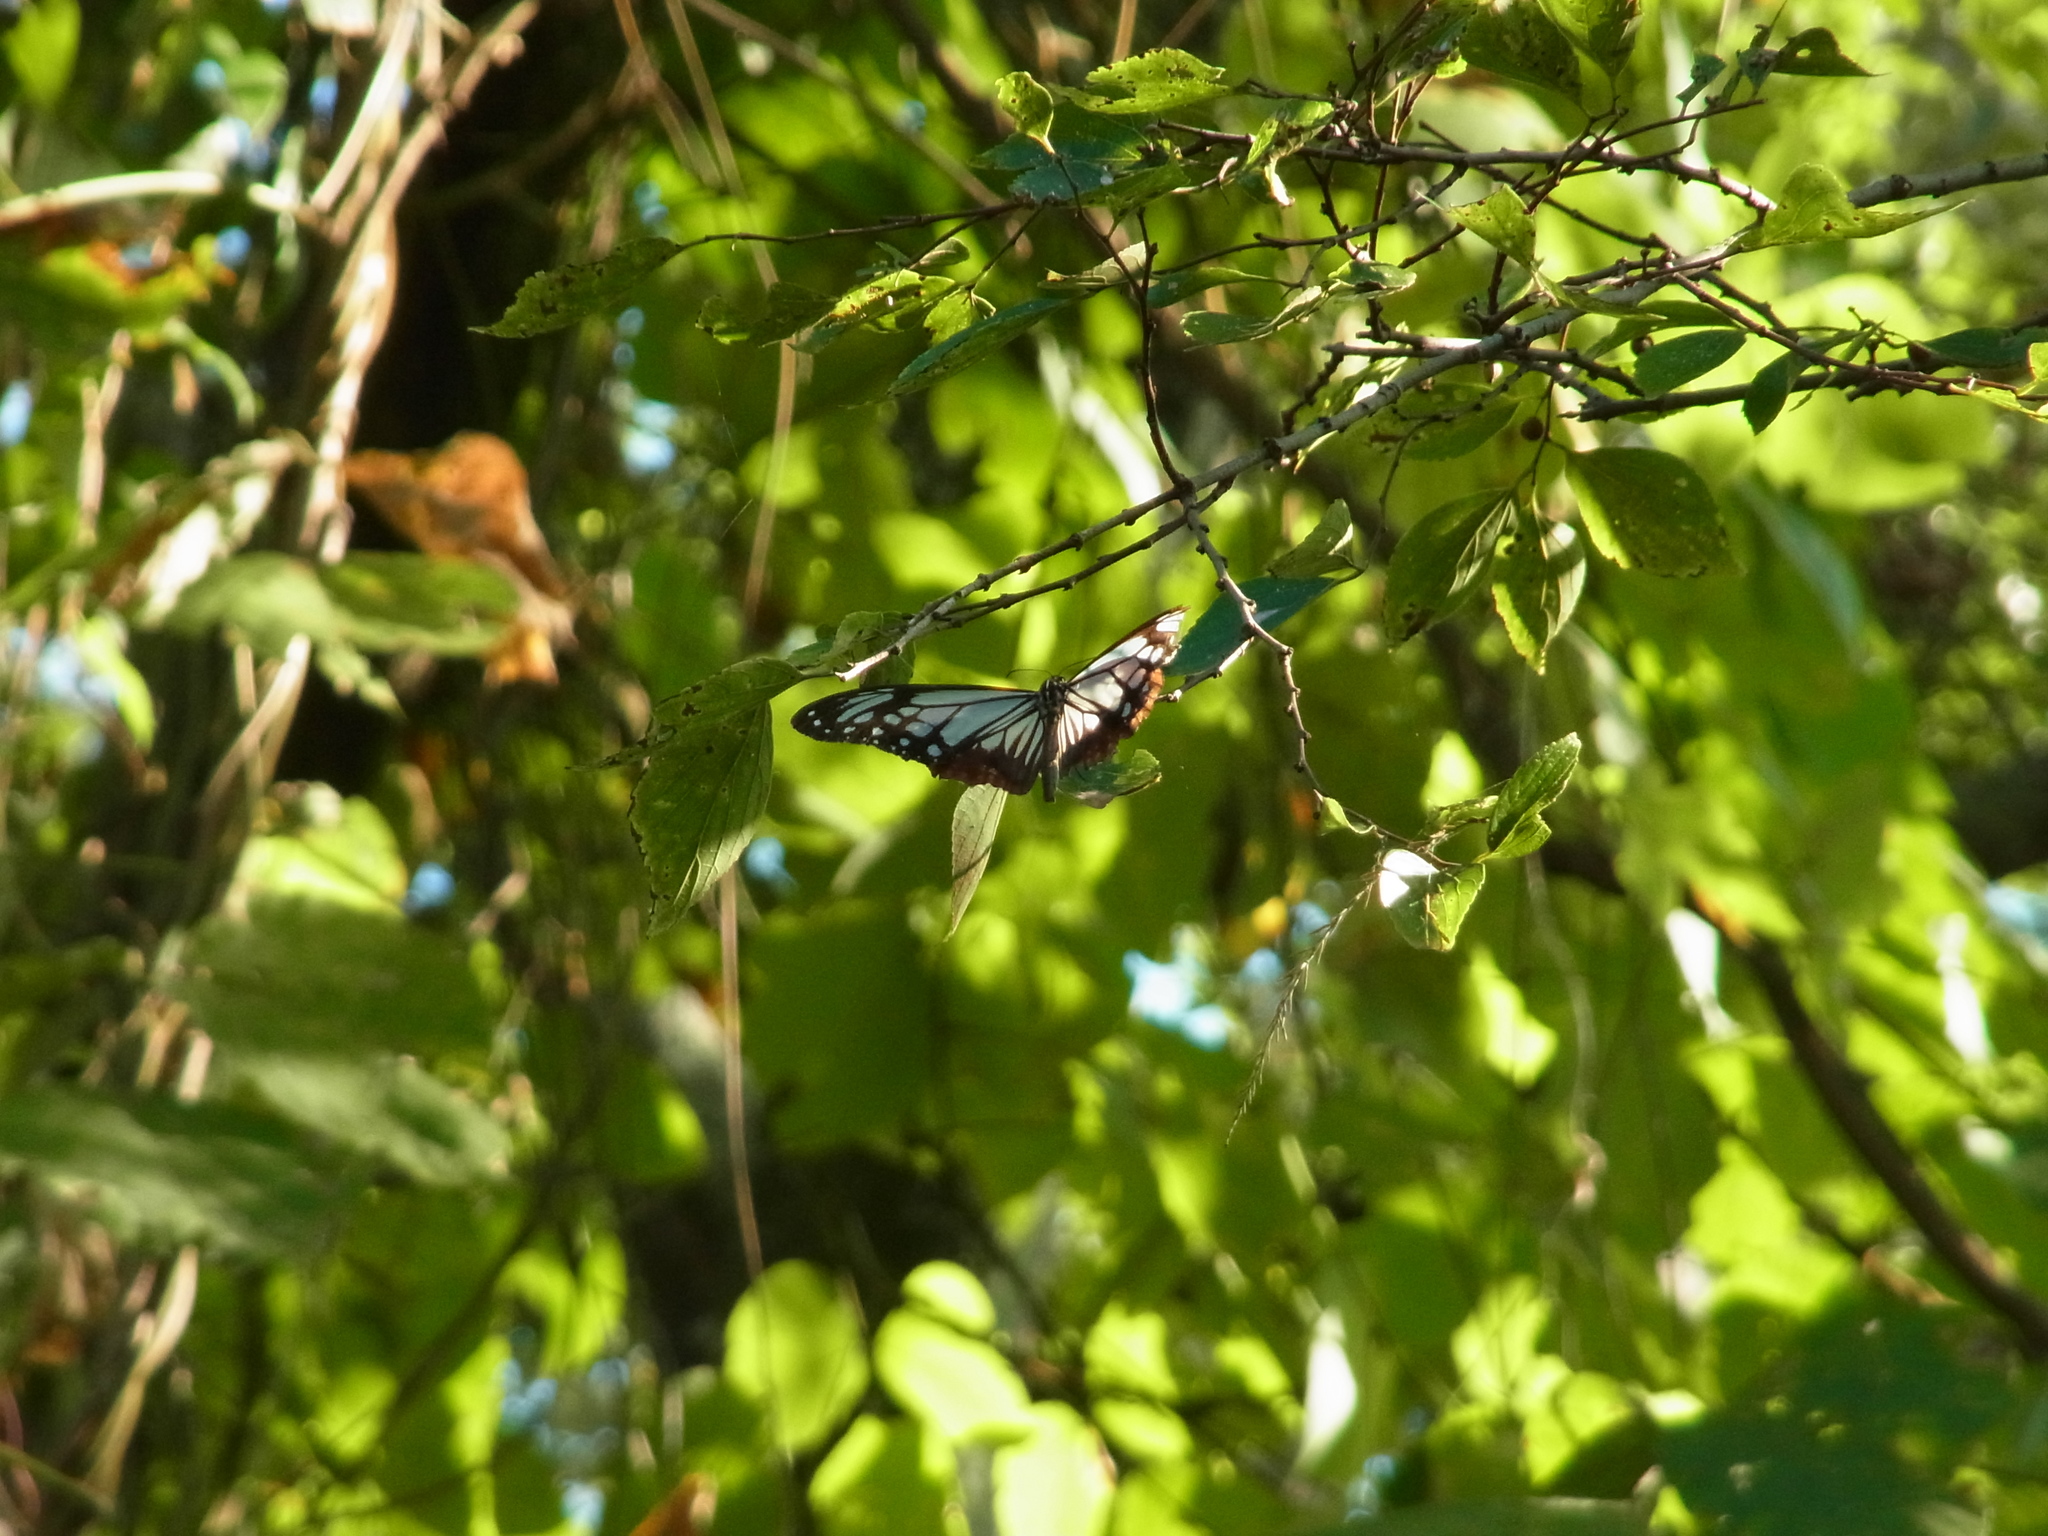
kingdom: Animalia
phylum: Arthropoda
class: Insecta
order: Lepidoptera
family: Nymphalidae
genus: Parantica
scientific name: Parantica sita
